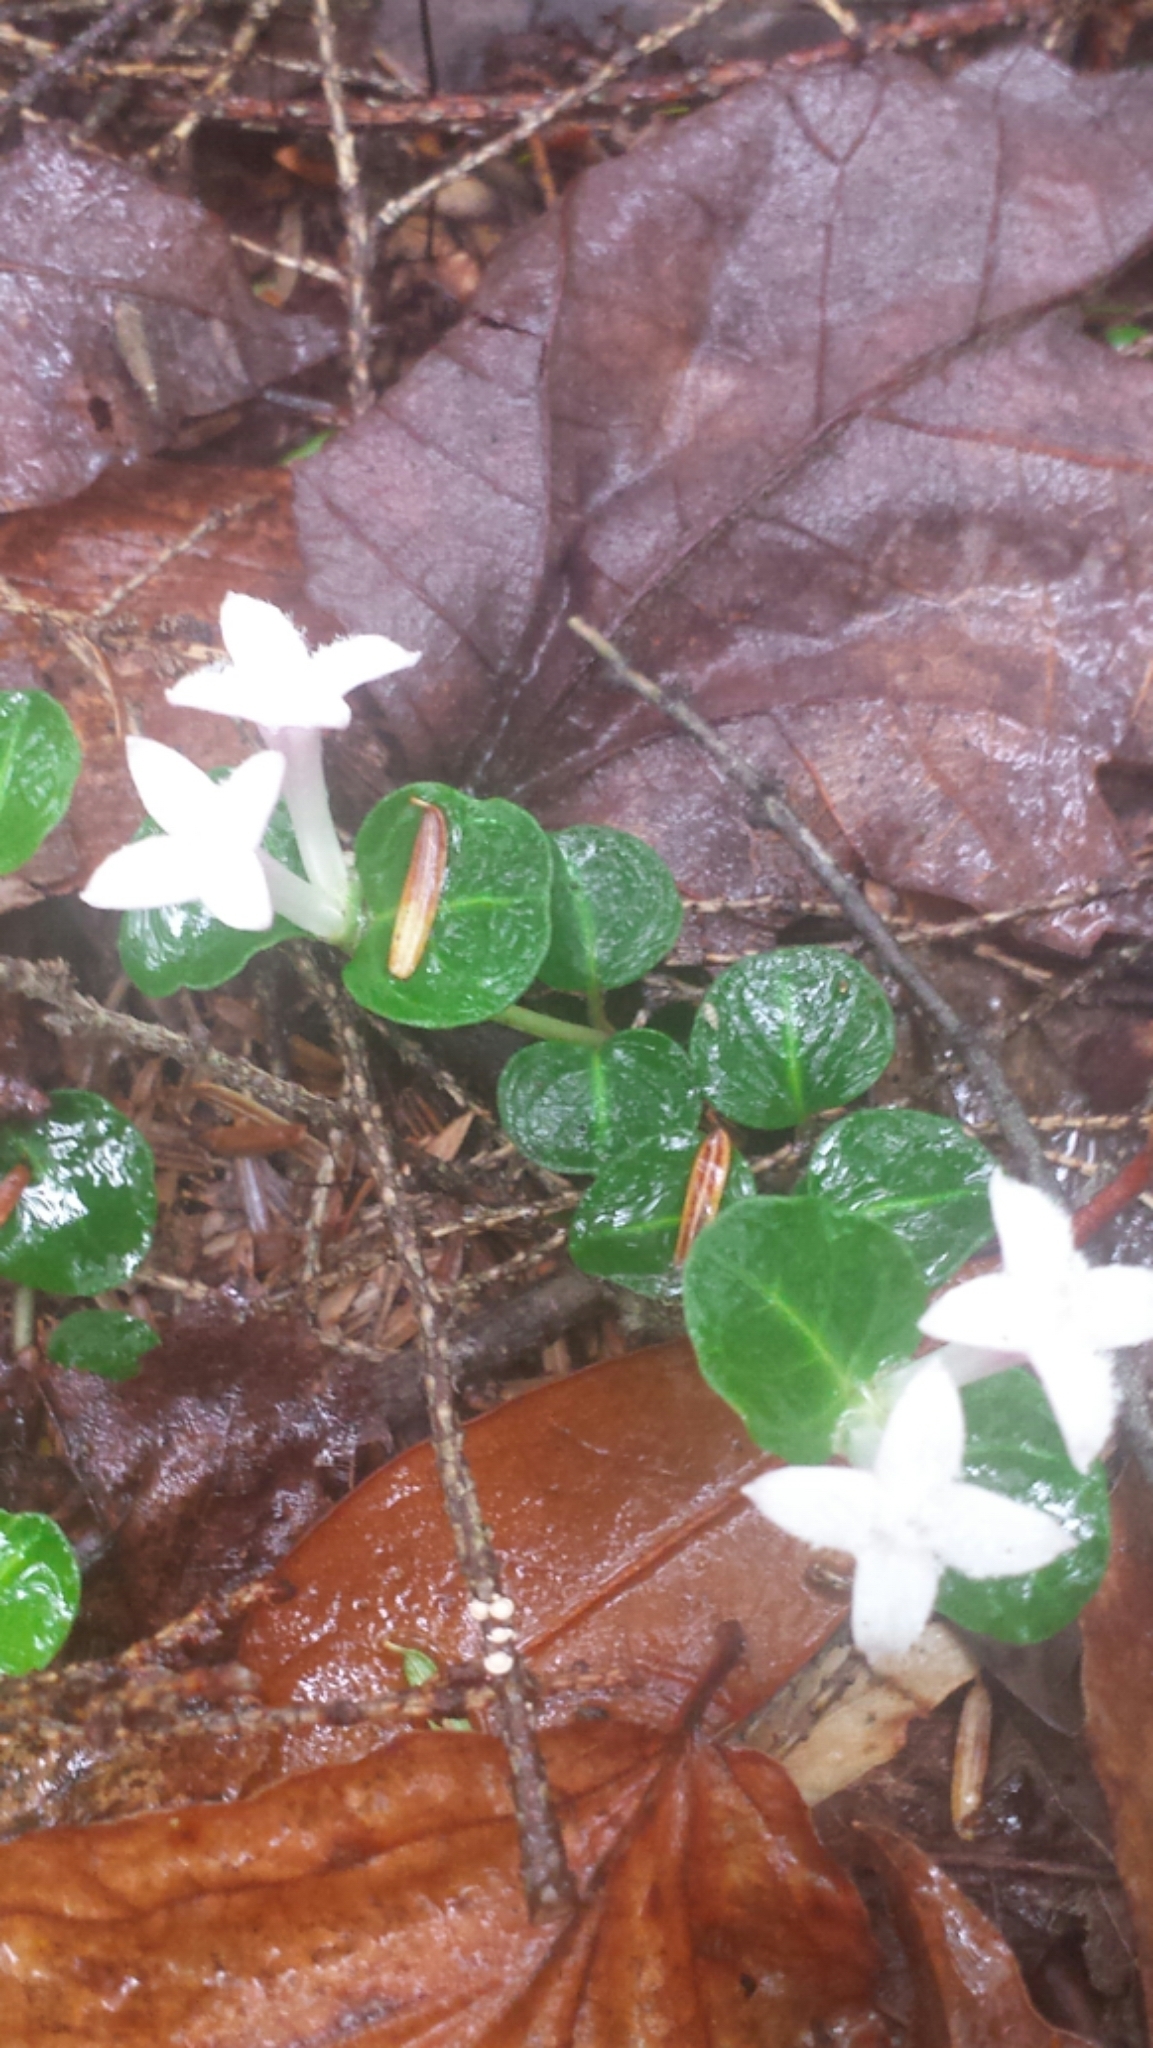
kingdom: Plantae
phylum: Tracheophyta
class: Magnoliopsida
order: Gentianales
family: Rubiaceae
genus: Mitchella
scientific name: Mitchella repens
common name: Partridge-berry
